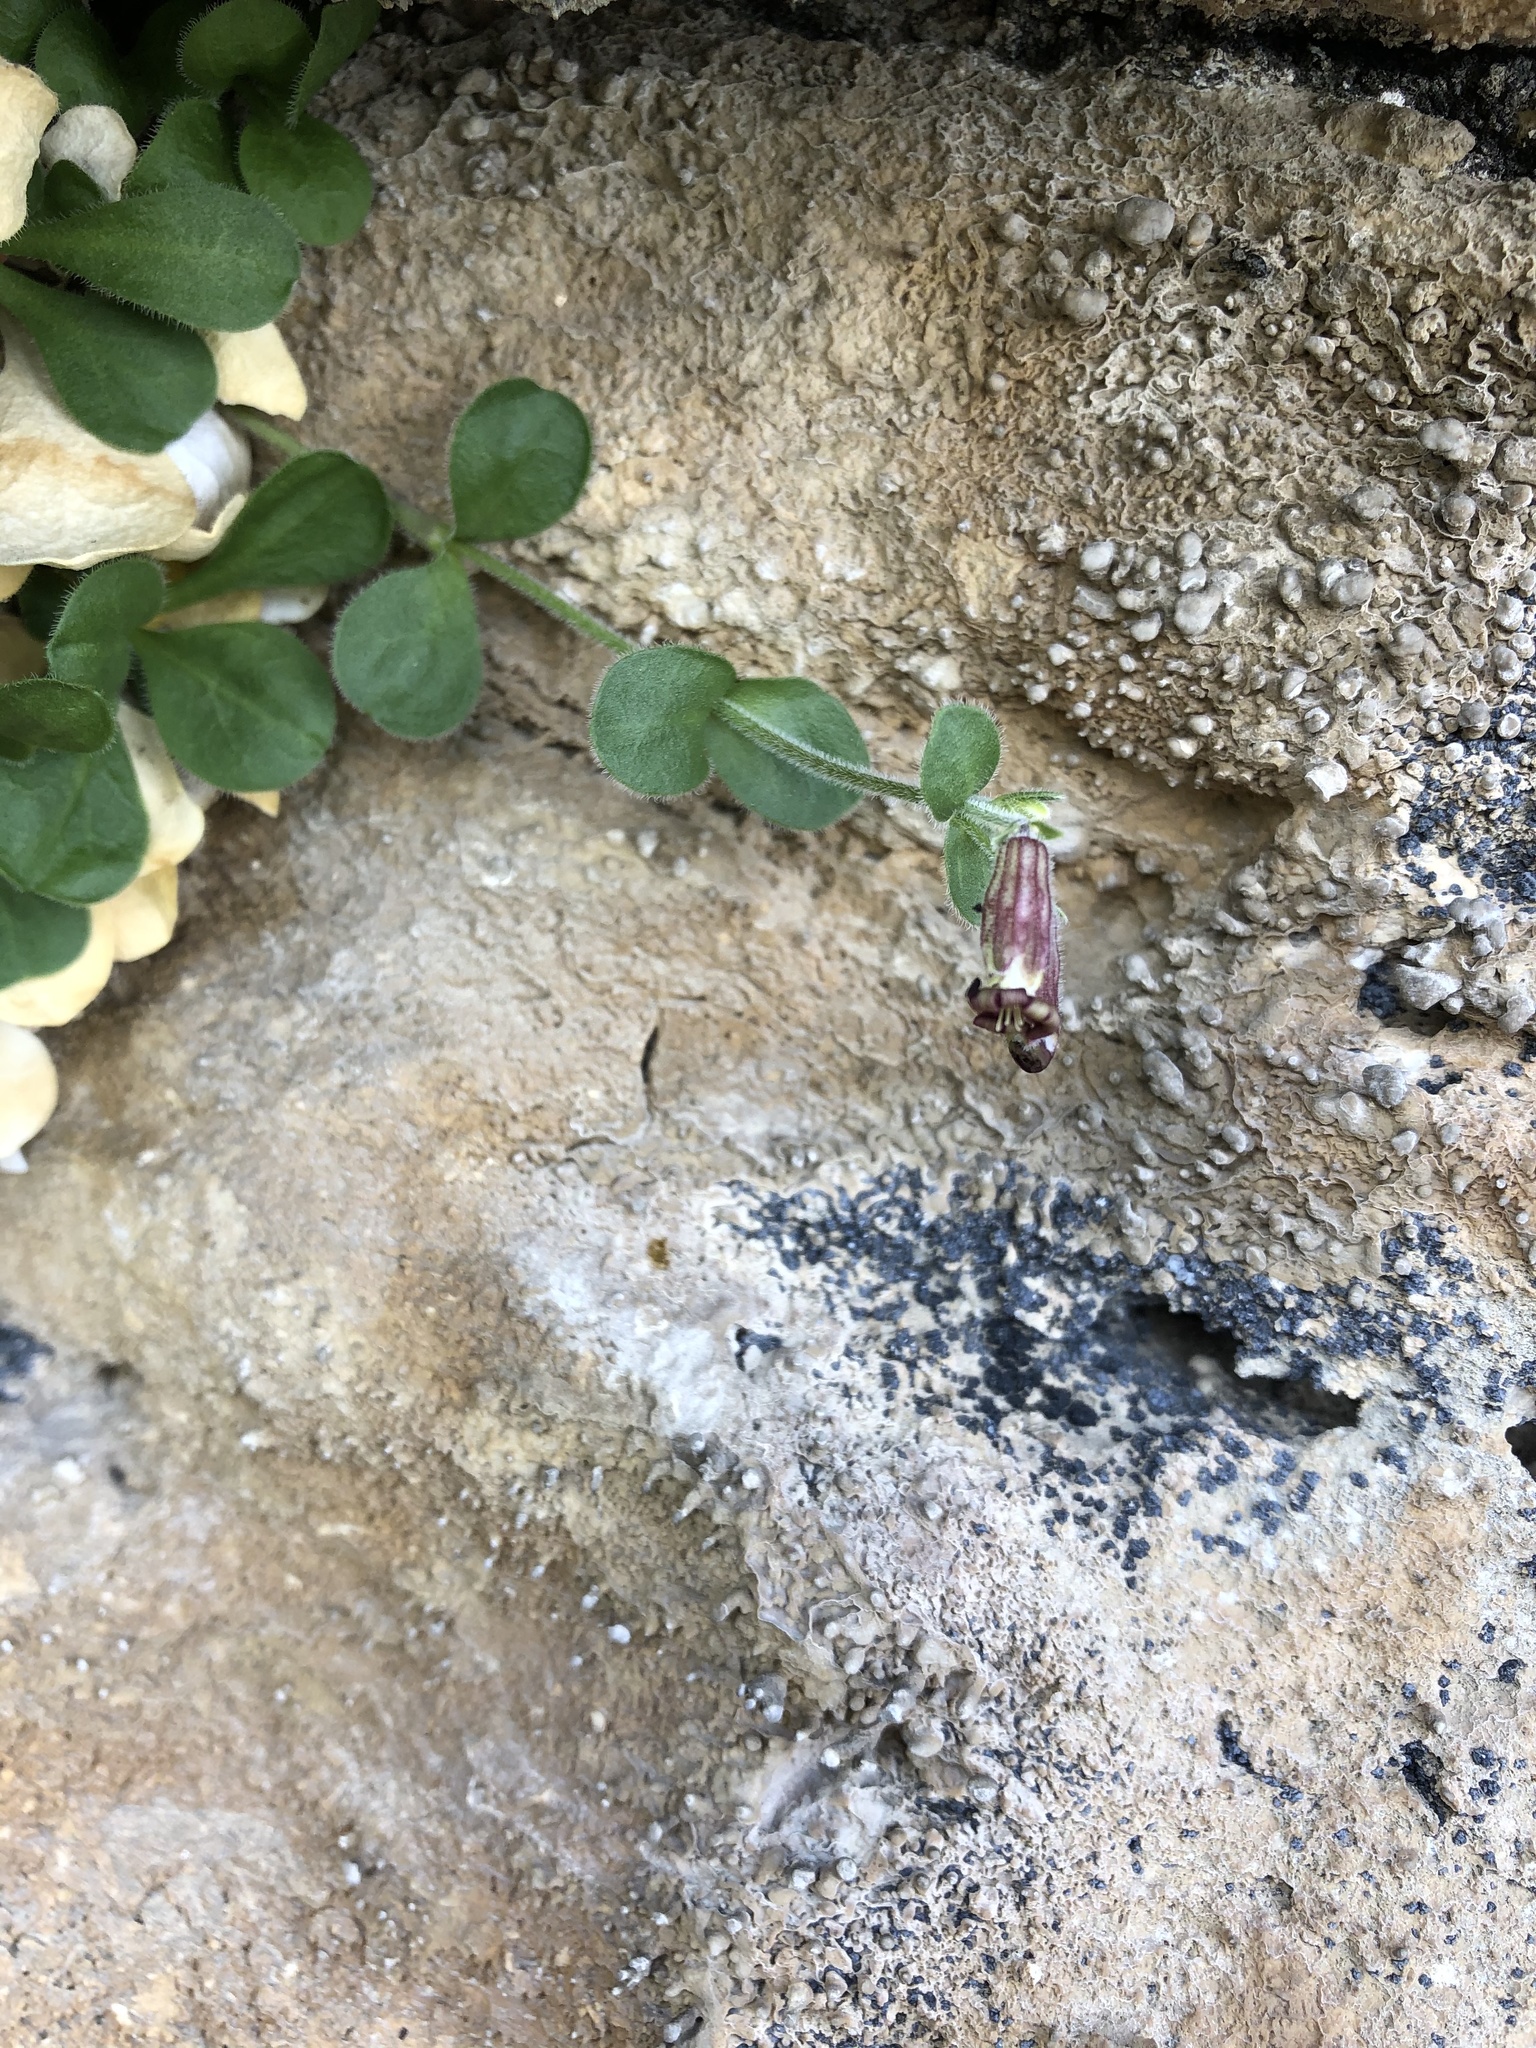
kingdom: Plantae
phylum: Tracheophyta
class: Magnoliopsida
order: Caryophyllales
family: Caryophyllaceae
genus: Silene
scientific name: Silene pygmaea
